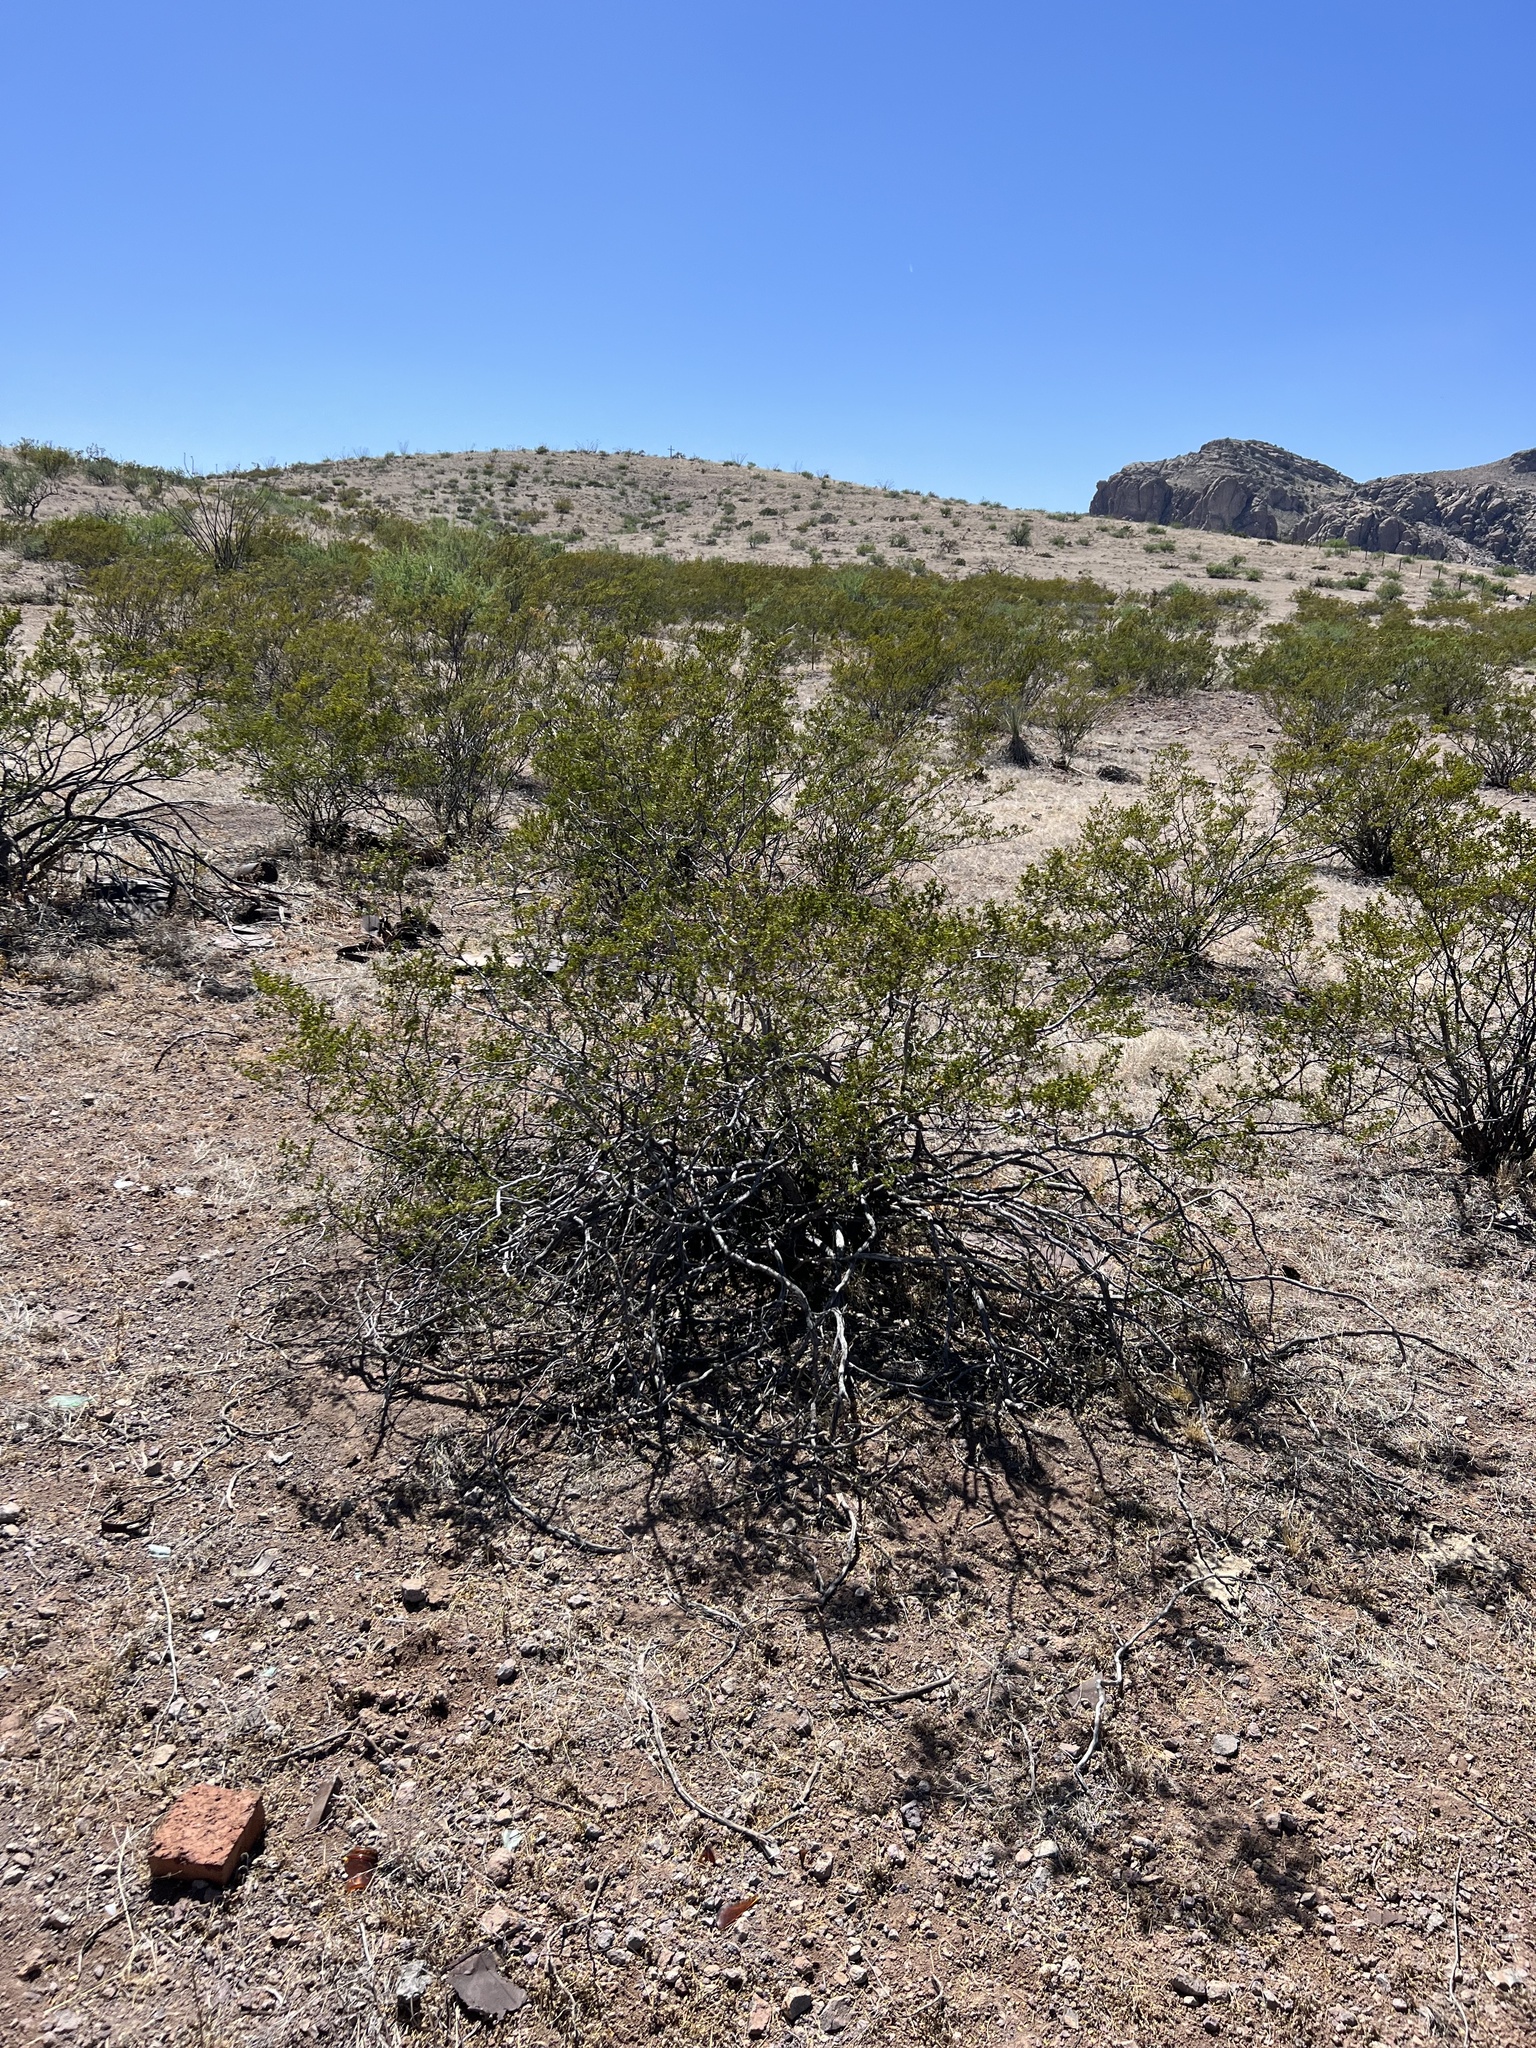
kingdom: Plantae
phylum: Tracheophyta
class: Magnoliopsida
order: Zygophyllales
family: Zygophyllaceae
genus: Larrea
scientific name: Larrea tridentata
